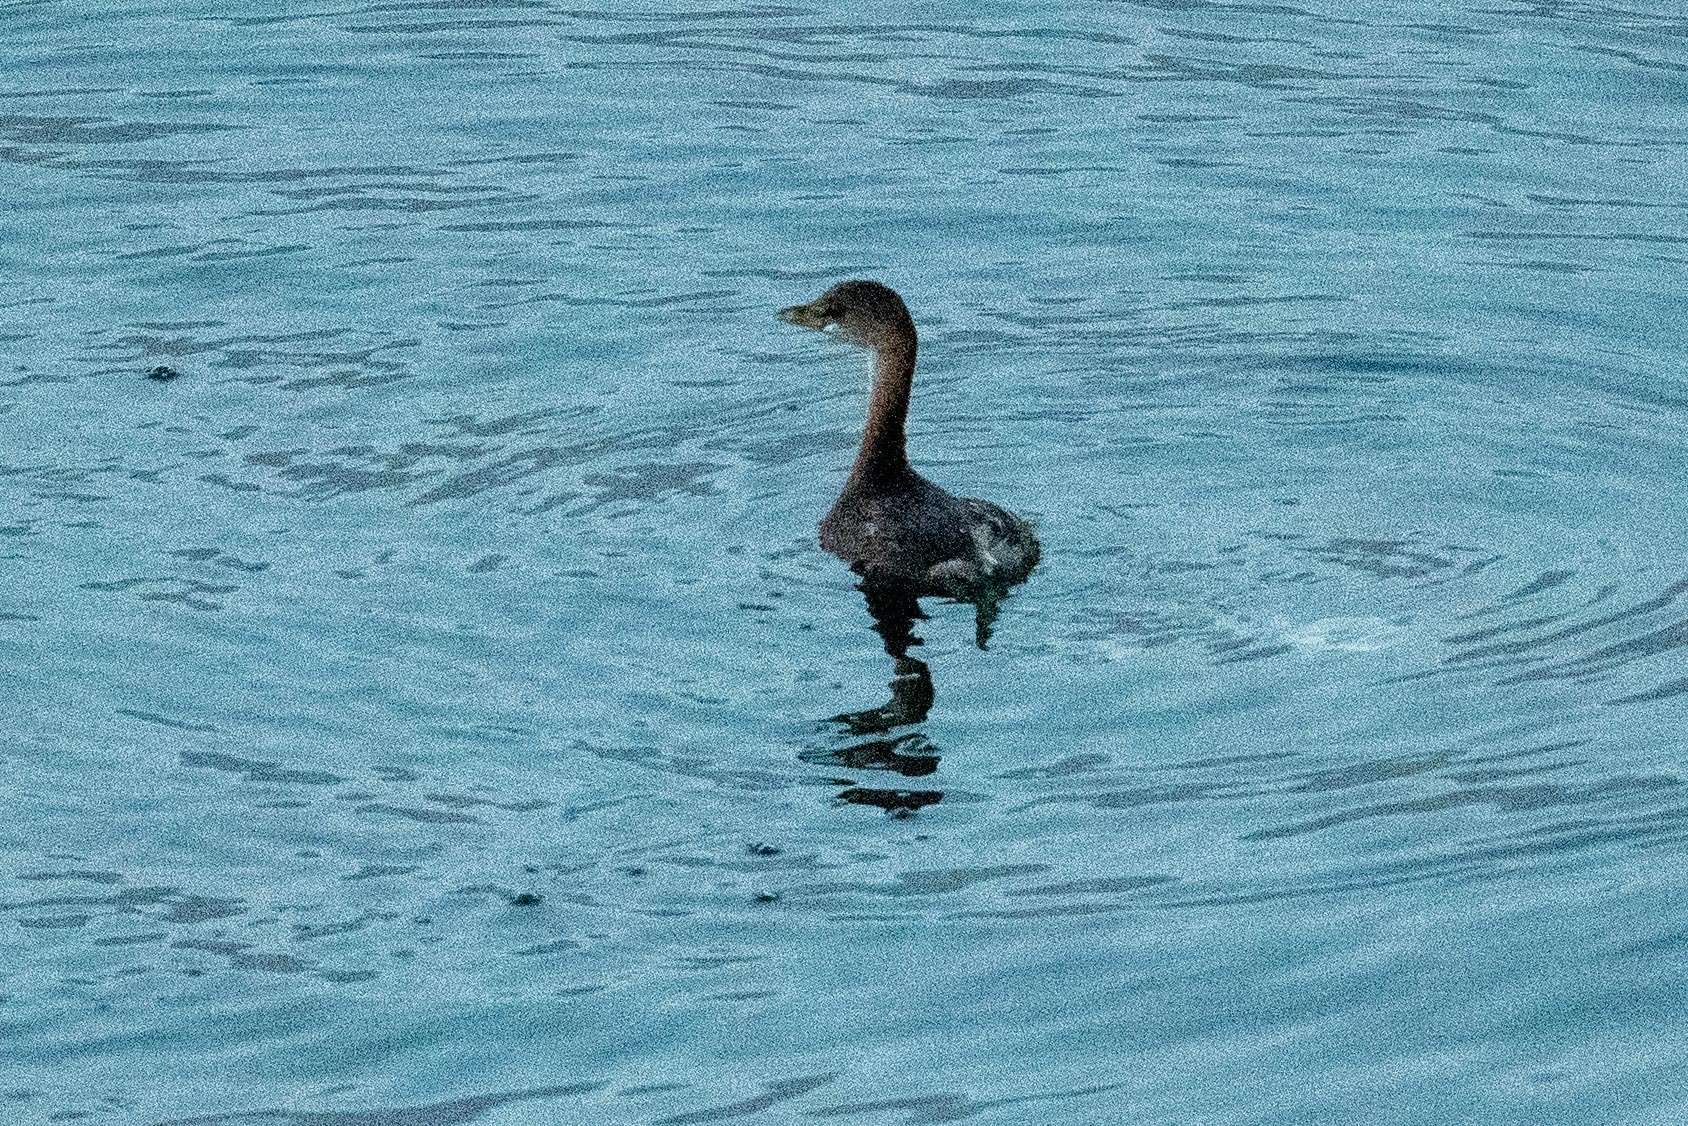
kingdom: Animalia
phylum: Chordata
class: Aves
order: Podicipediformes
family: Podicipedidae
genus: Podilymbus
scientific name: Podilymbus podiceps
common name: Pied-billed grebe
